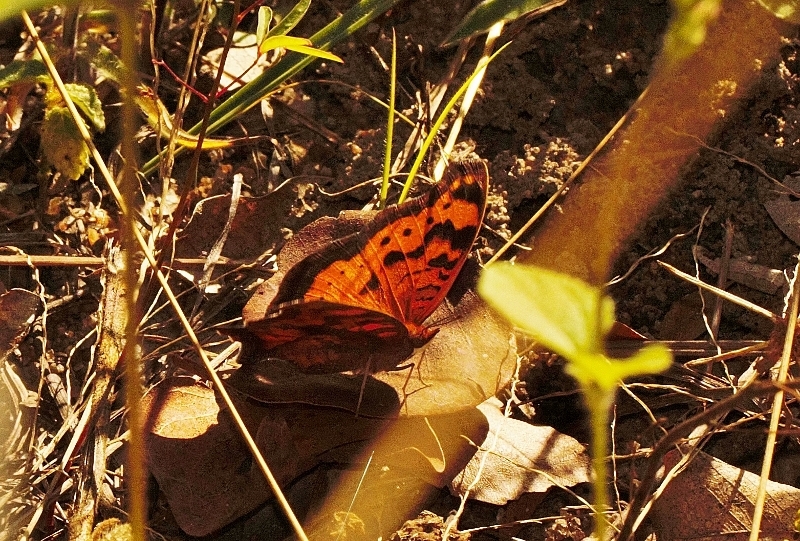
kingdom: Animalia
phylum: Arthropoda
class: Insecta
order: Lepidoptera
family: Nymphalidae
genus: Junonia
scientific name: Junonia antilope
